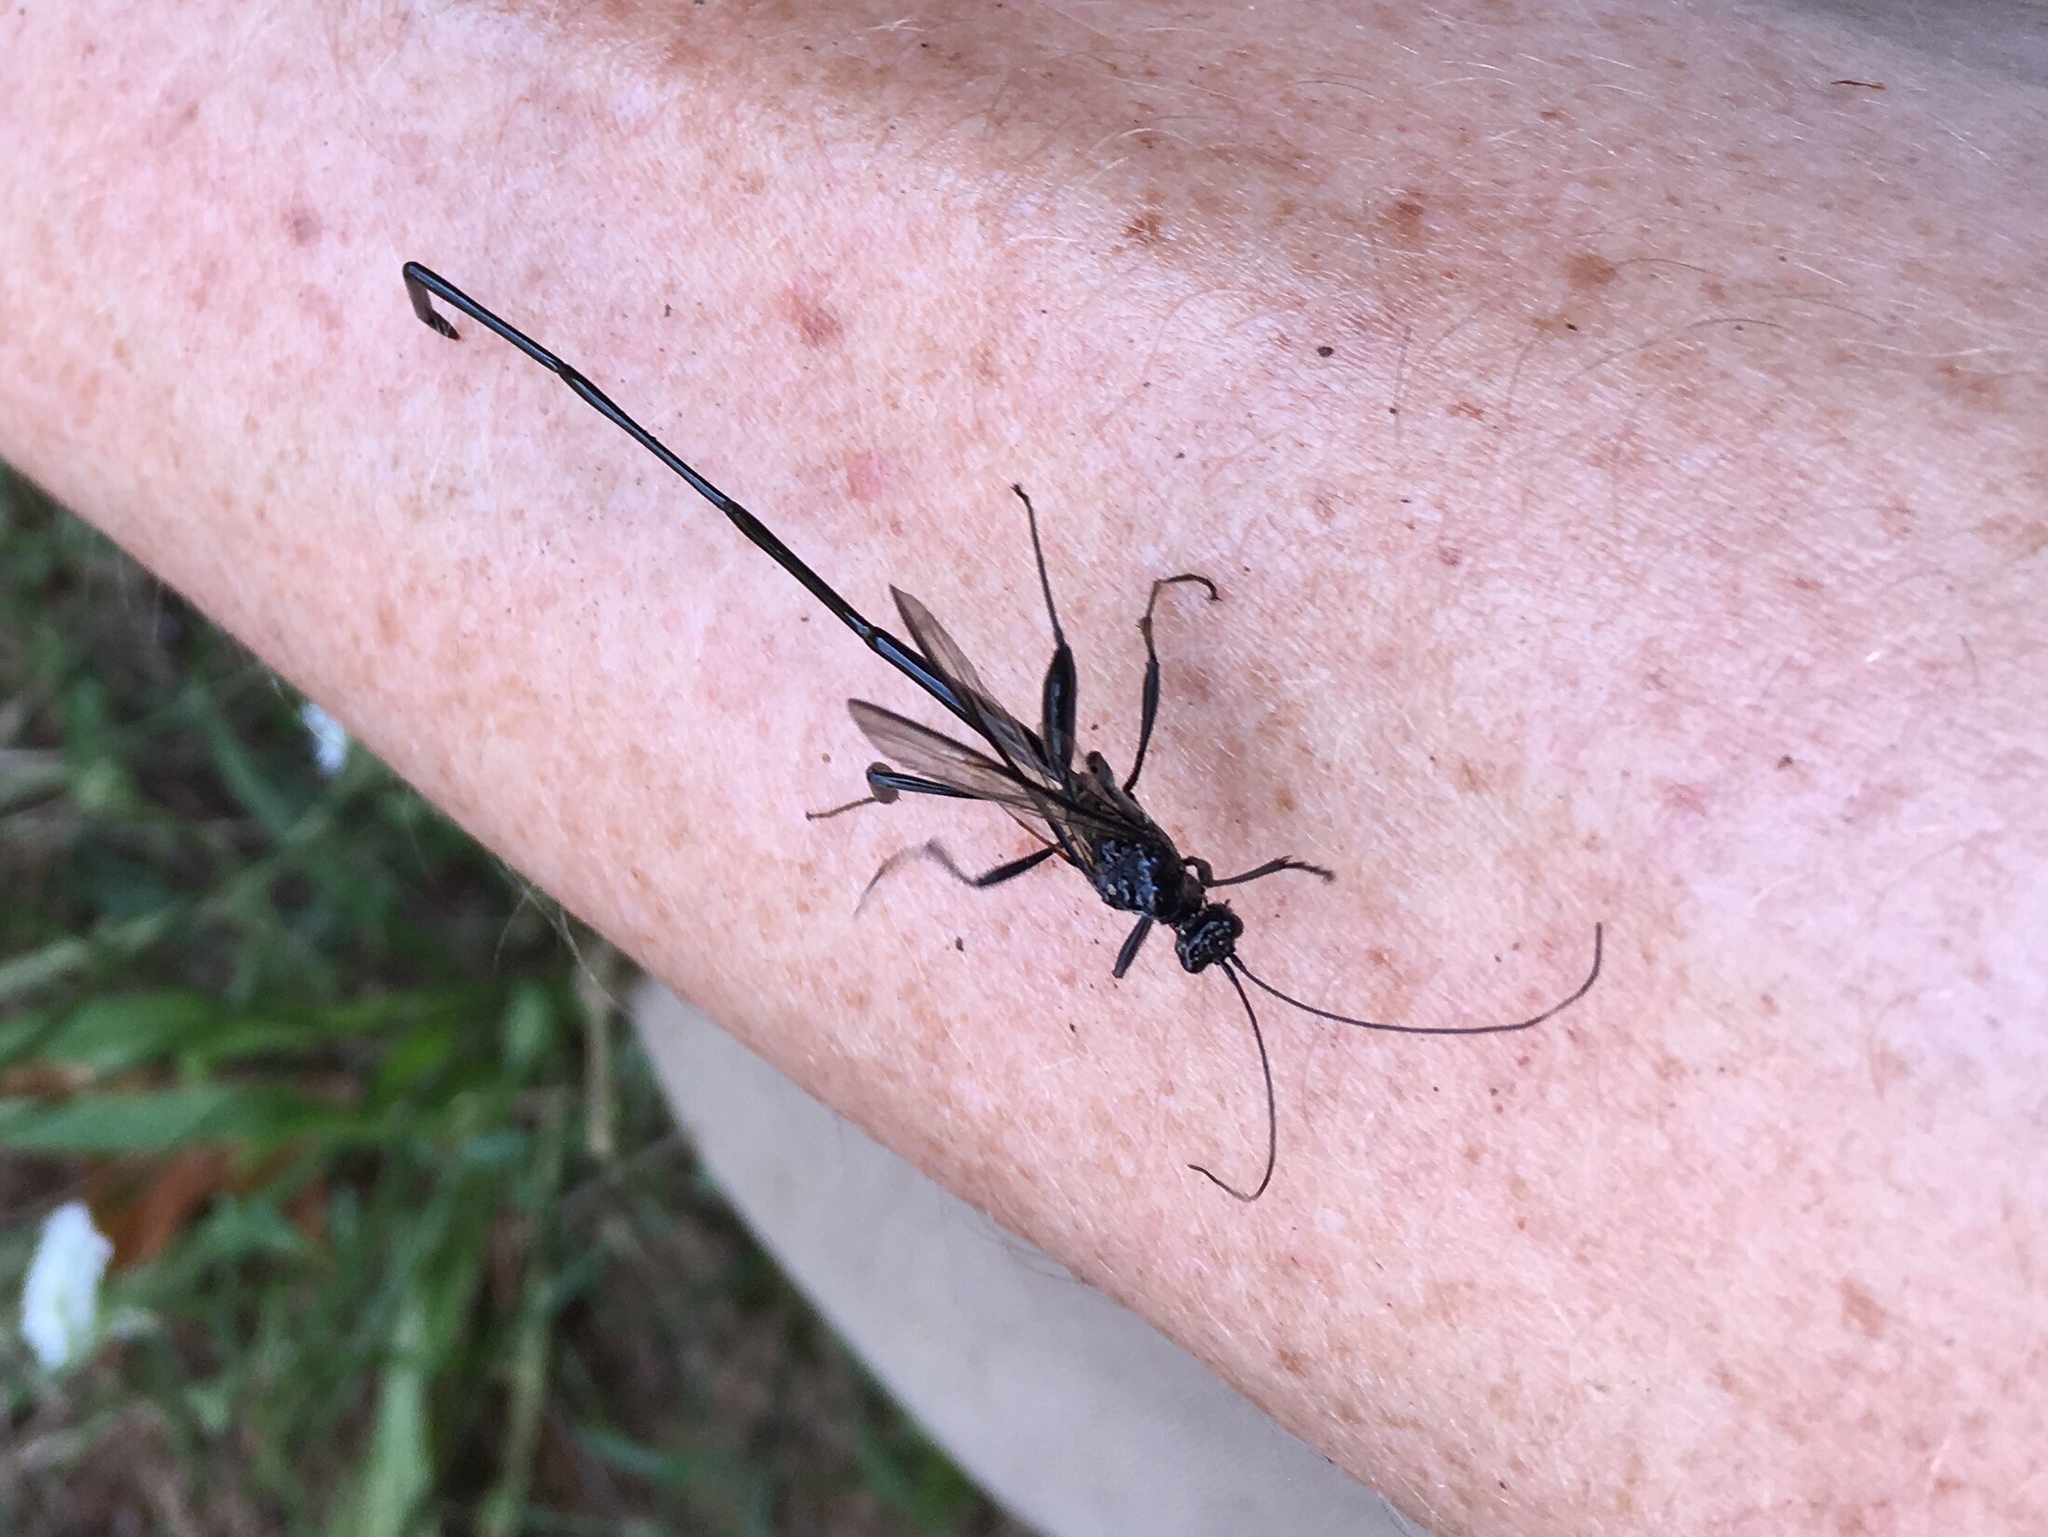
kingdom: Animalia
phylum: Arthropoda
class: Insecta
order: Hymenoptera
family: Pelecinidae
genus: Pelecinus
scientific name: Pelecinus polyturator
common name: American pelecinid wasp
